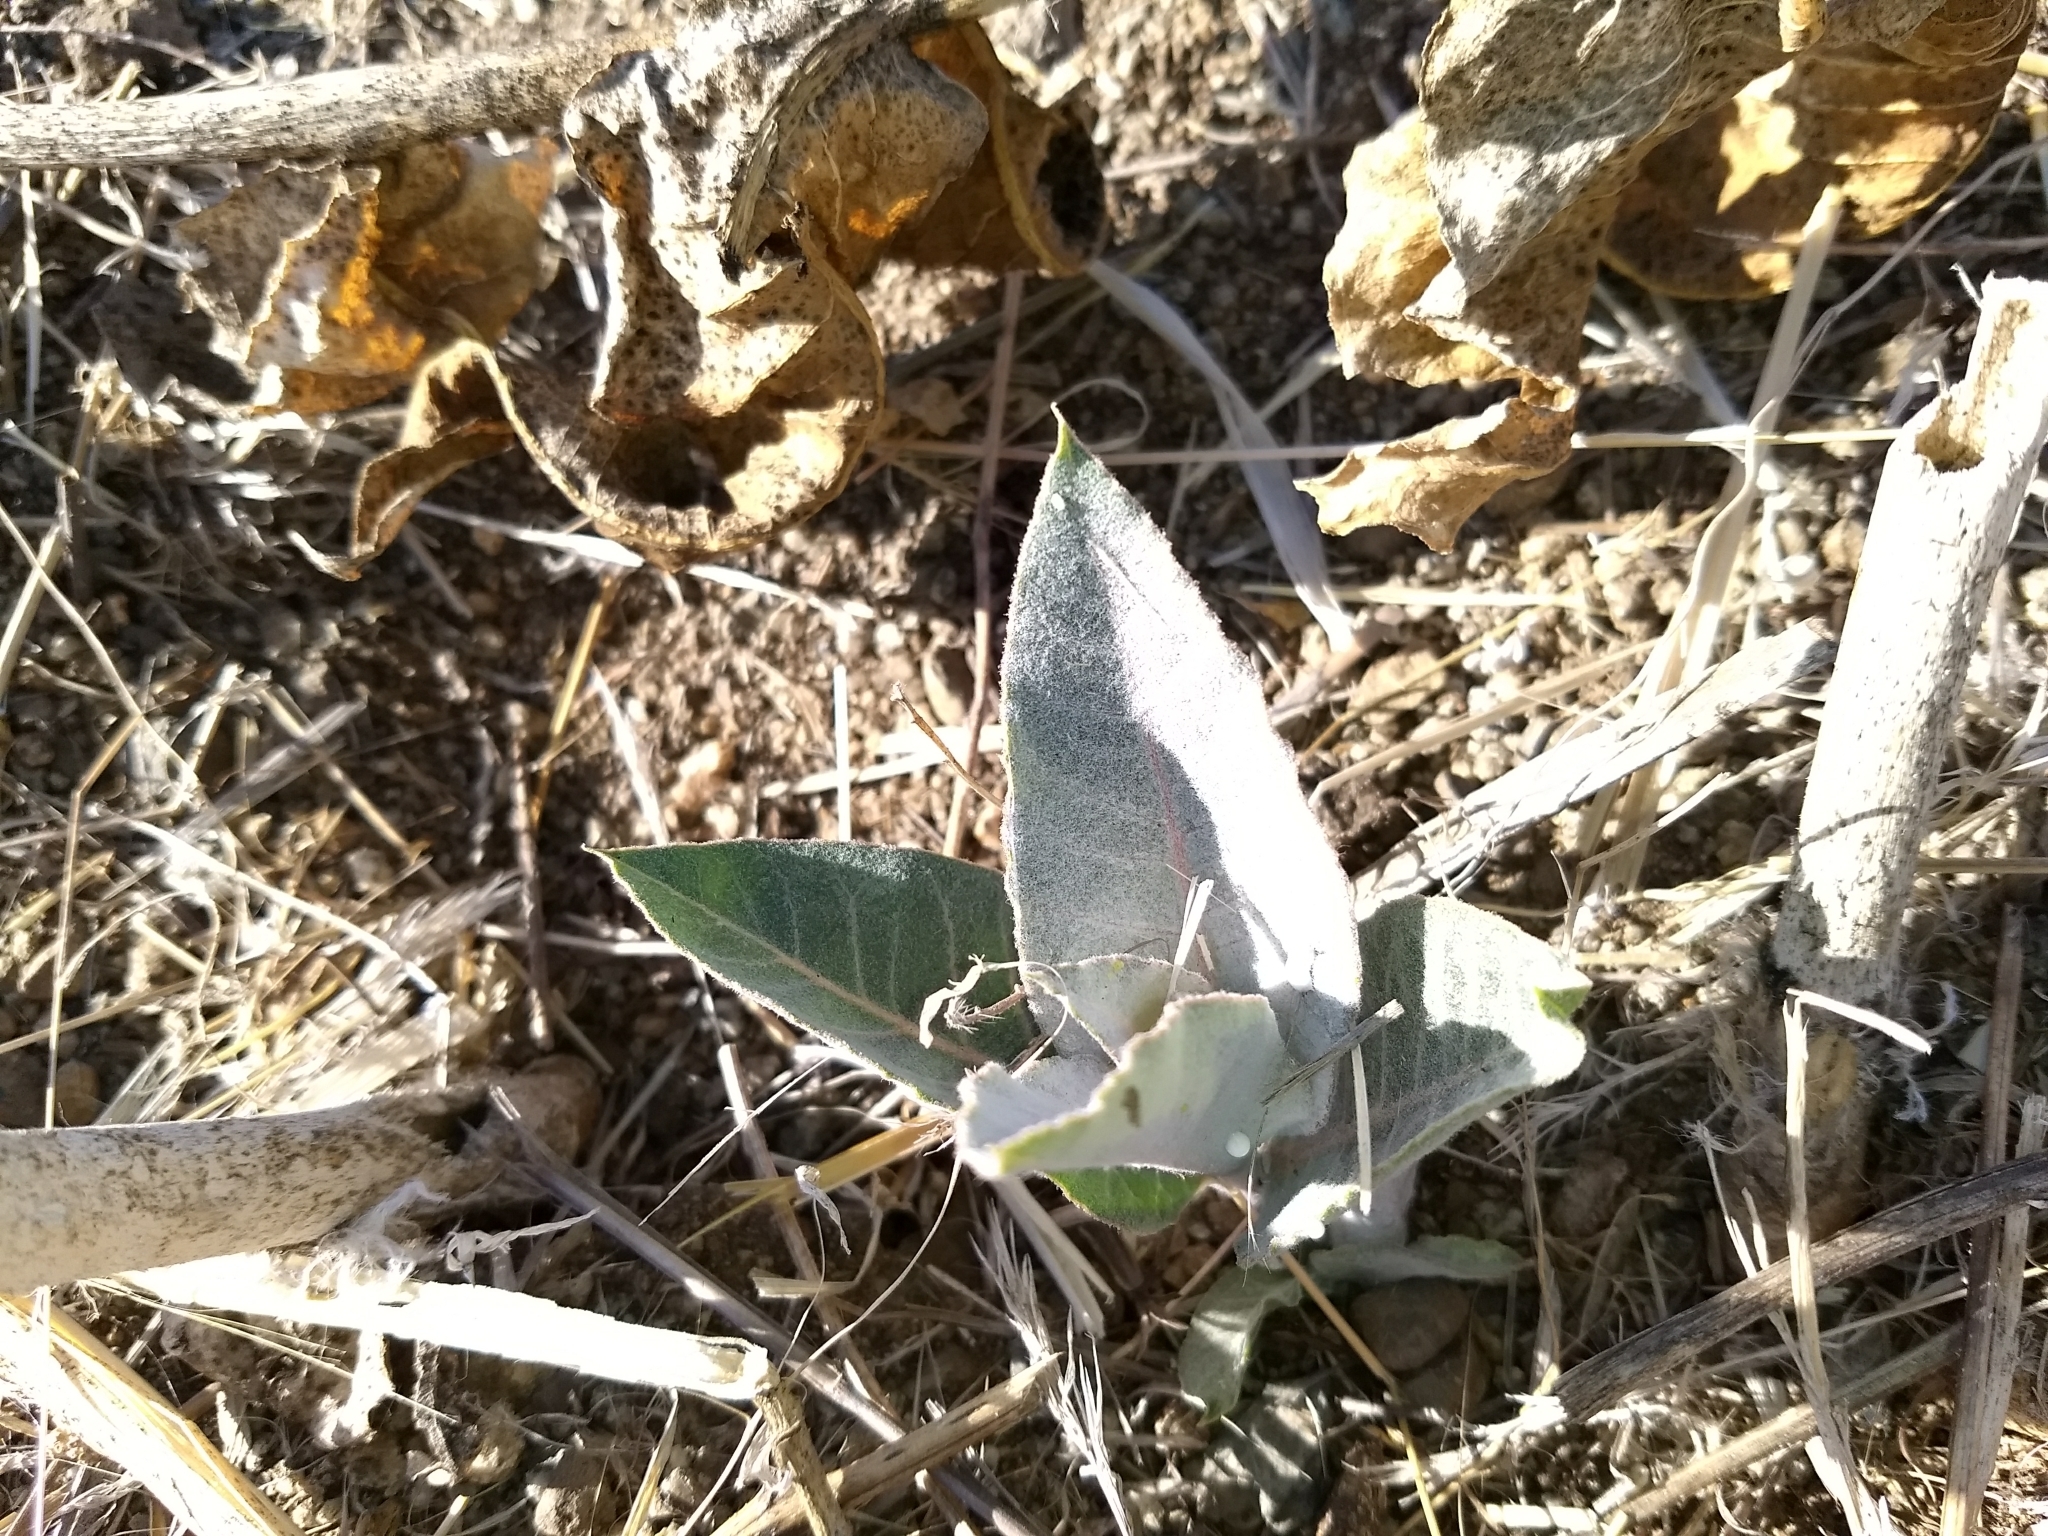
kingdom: Plantae
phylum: Tracheophyta
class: Magnoliopsida
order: Gentianales
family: Apocynaceae
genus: Asclepias
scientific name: Asclepias erosa
